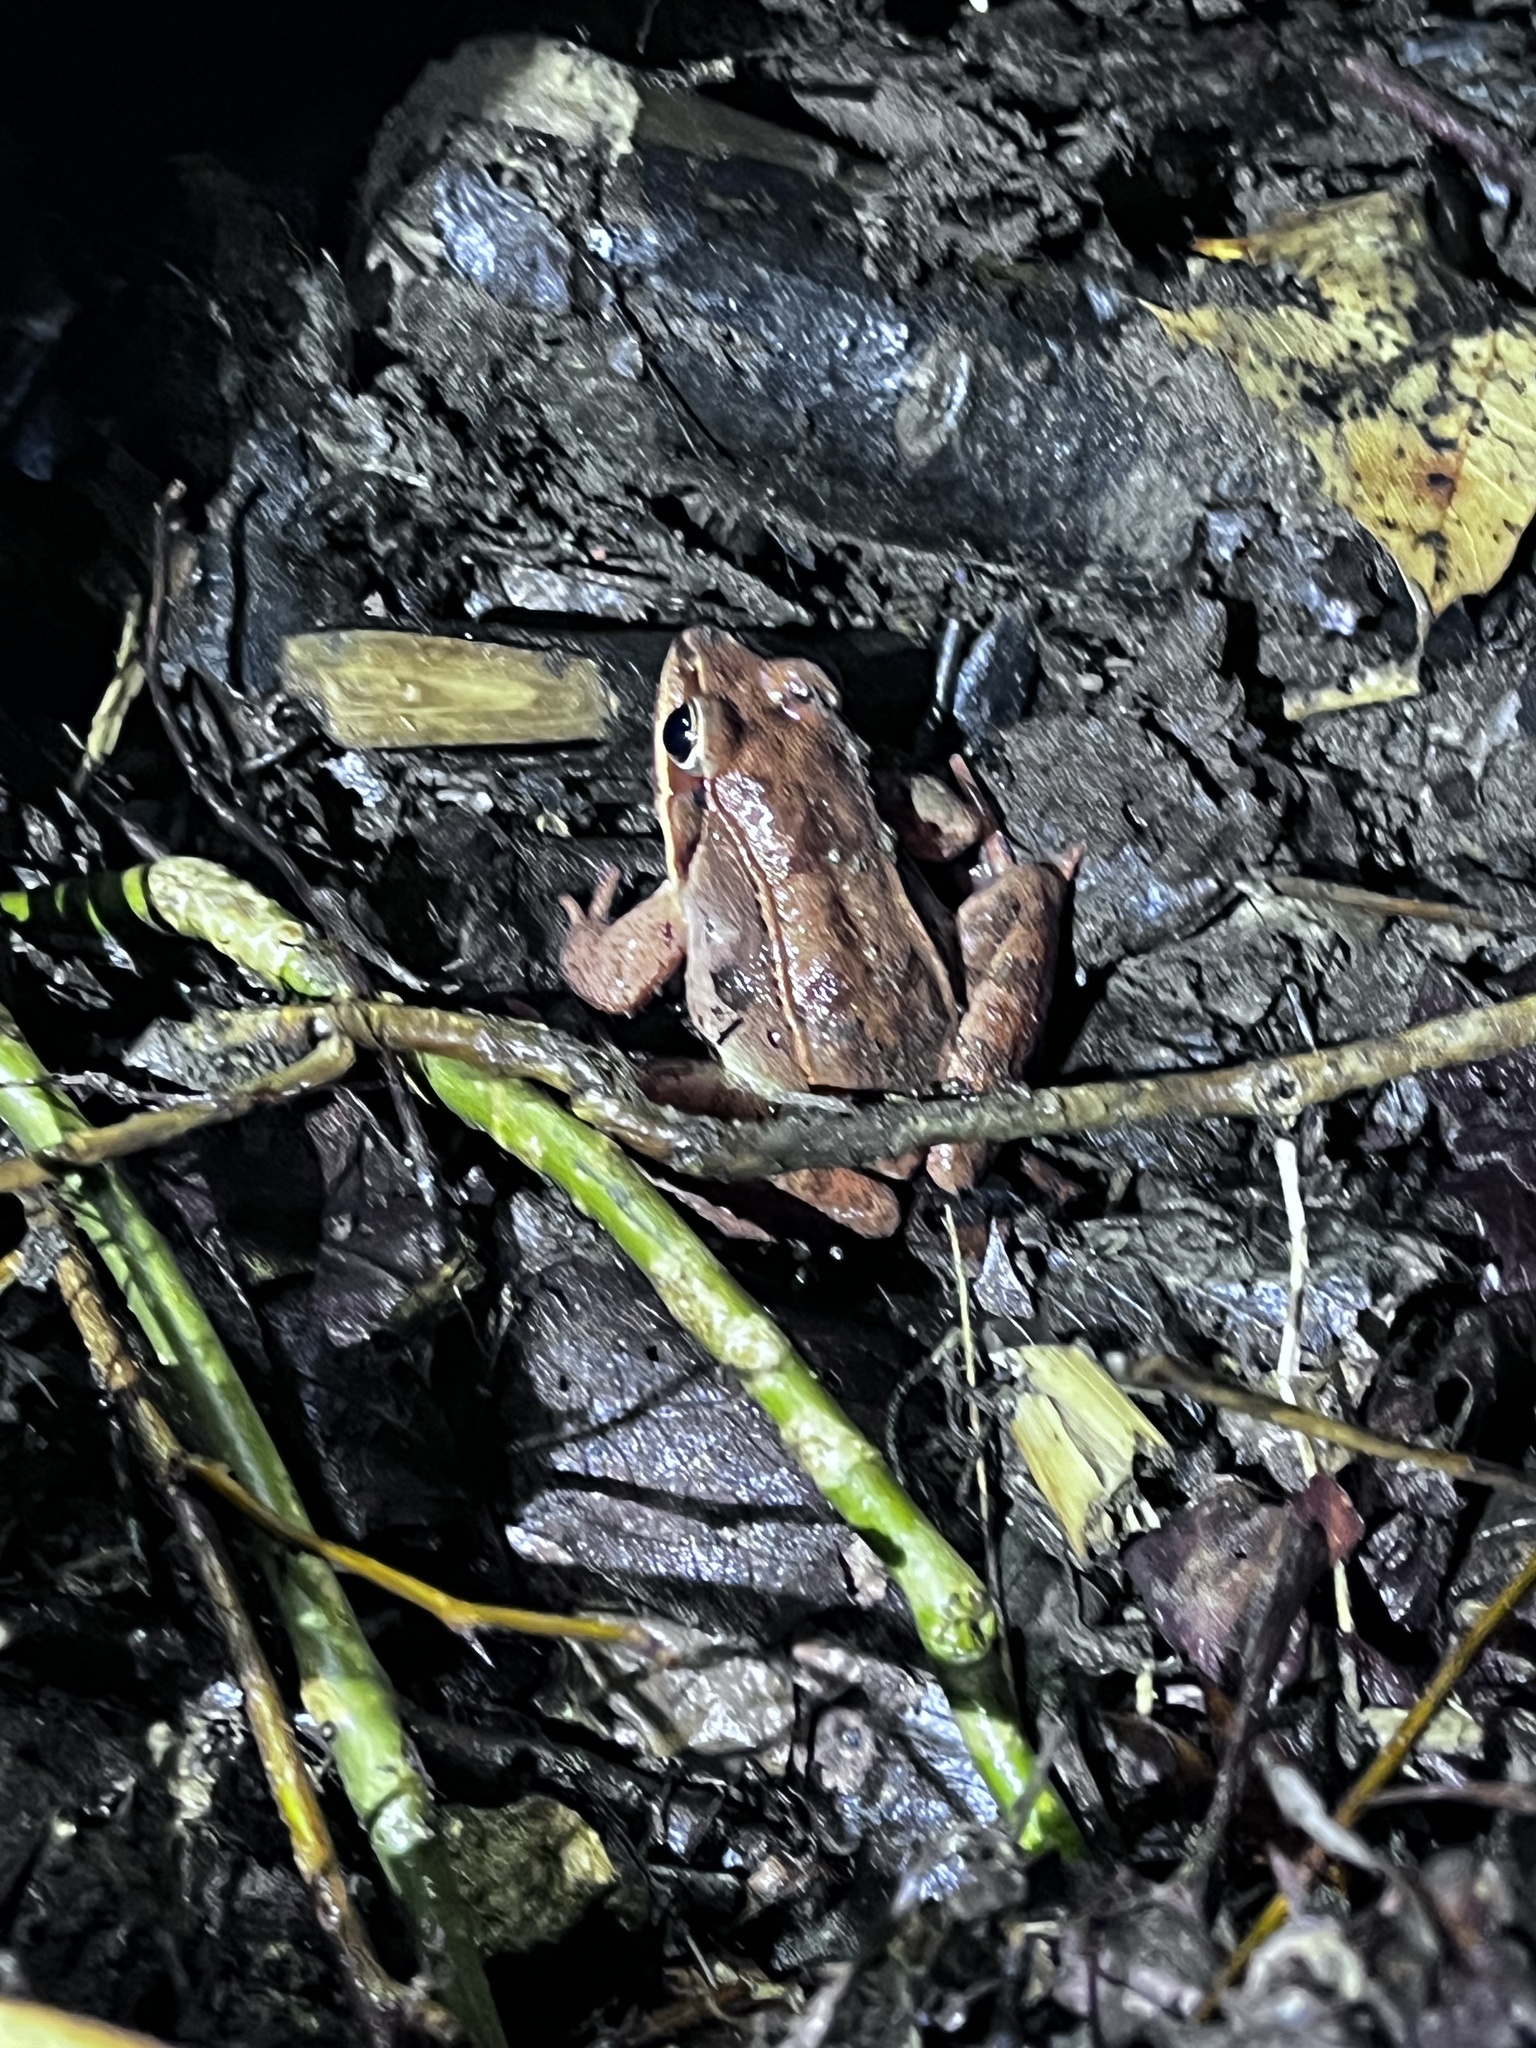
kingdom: Animalia
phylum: Chordata
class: Amphibia
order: Anura
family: Ranidae
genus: Lithobates
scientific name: Lithobates sylvaticus
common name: Wood frog
